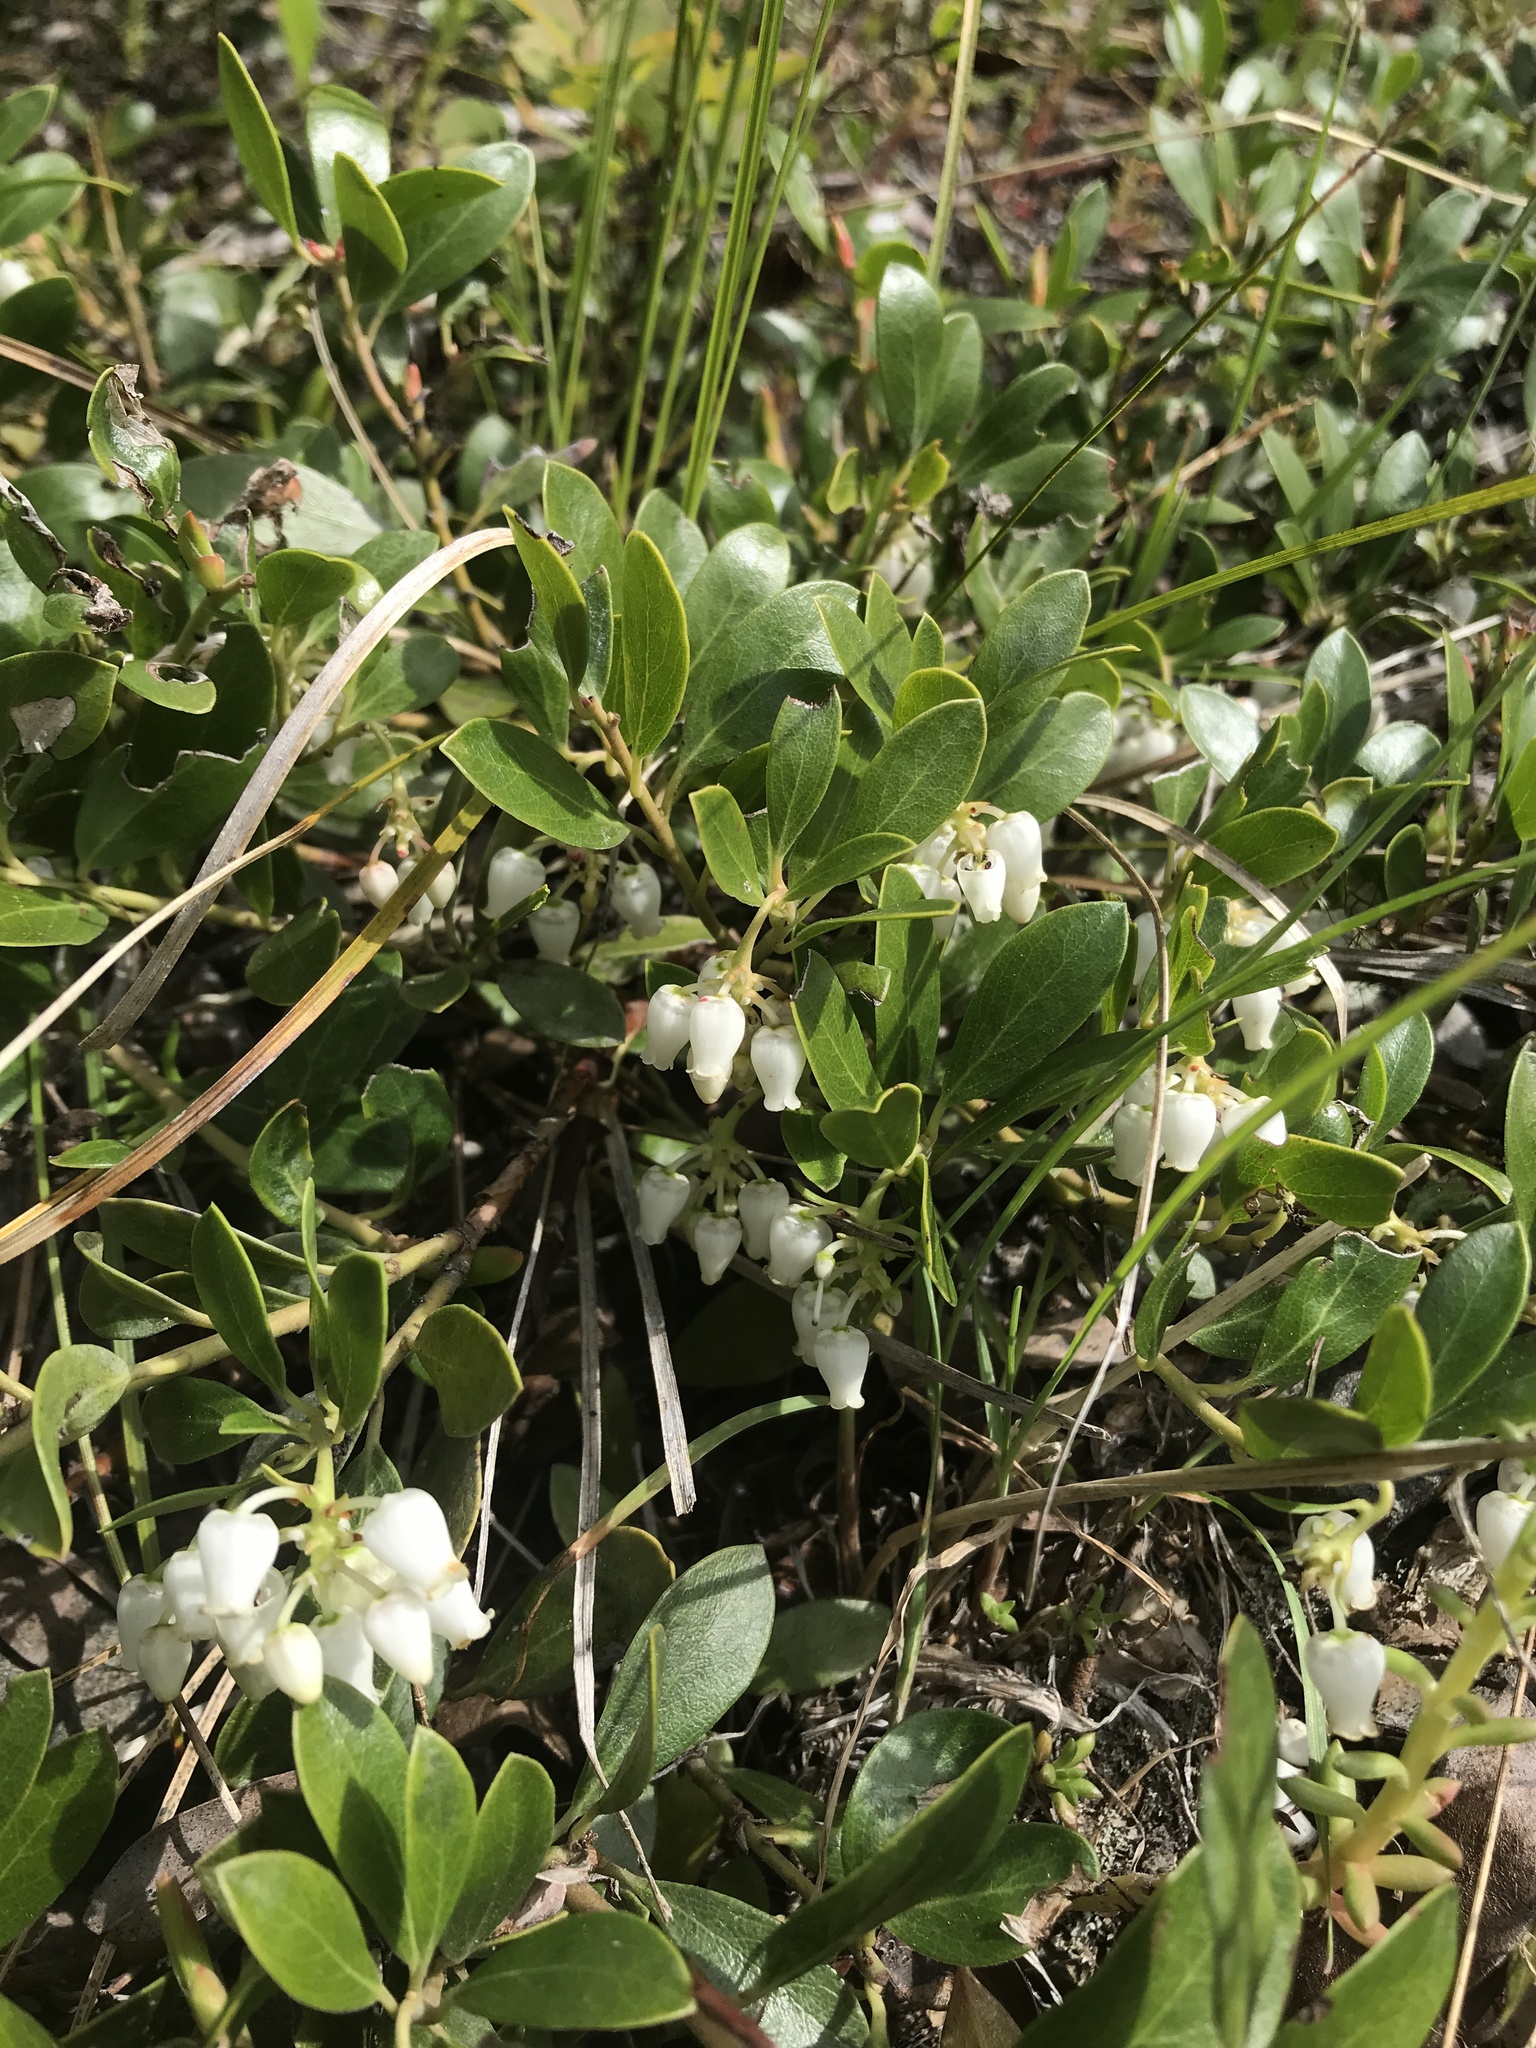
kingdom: Plantae
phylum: Tracheophyta
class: Magnoliopsida
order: Ericales
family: Ericaceae
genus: Arctostaphylos
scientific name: Arctostaphylos nevadensis
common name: Pinemat manzanita
